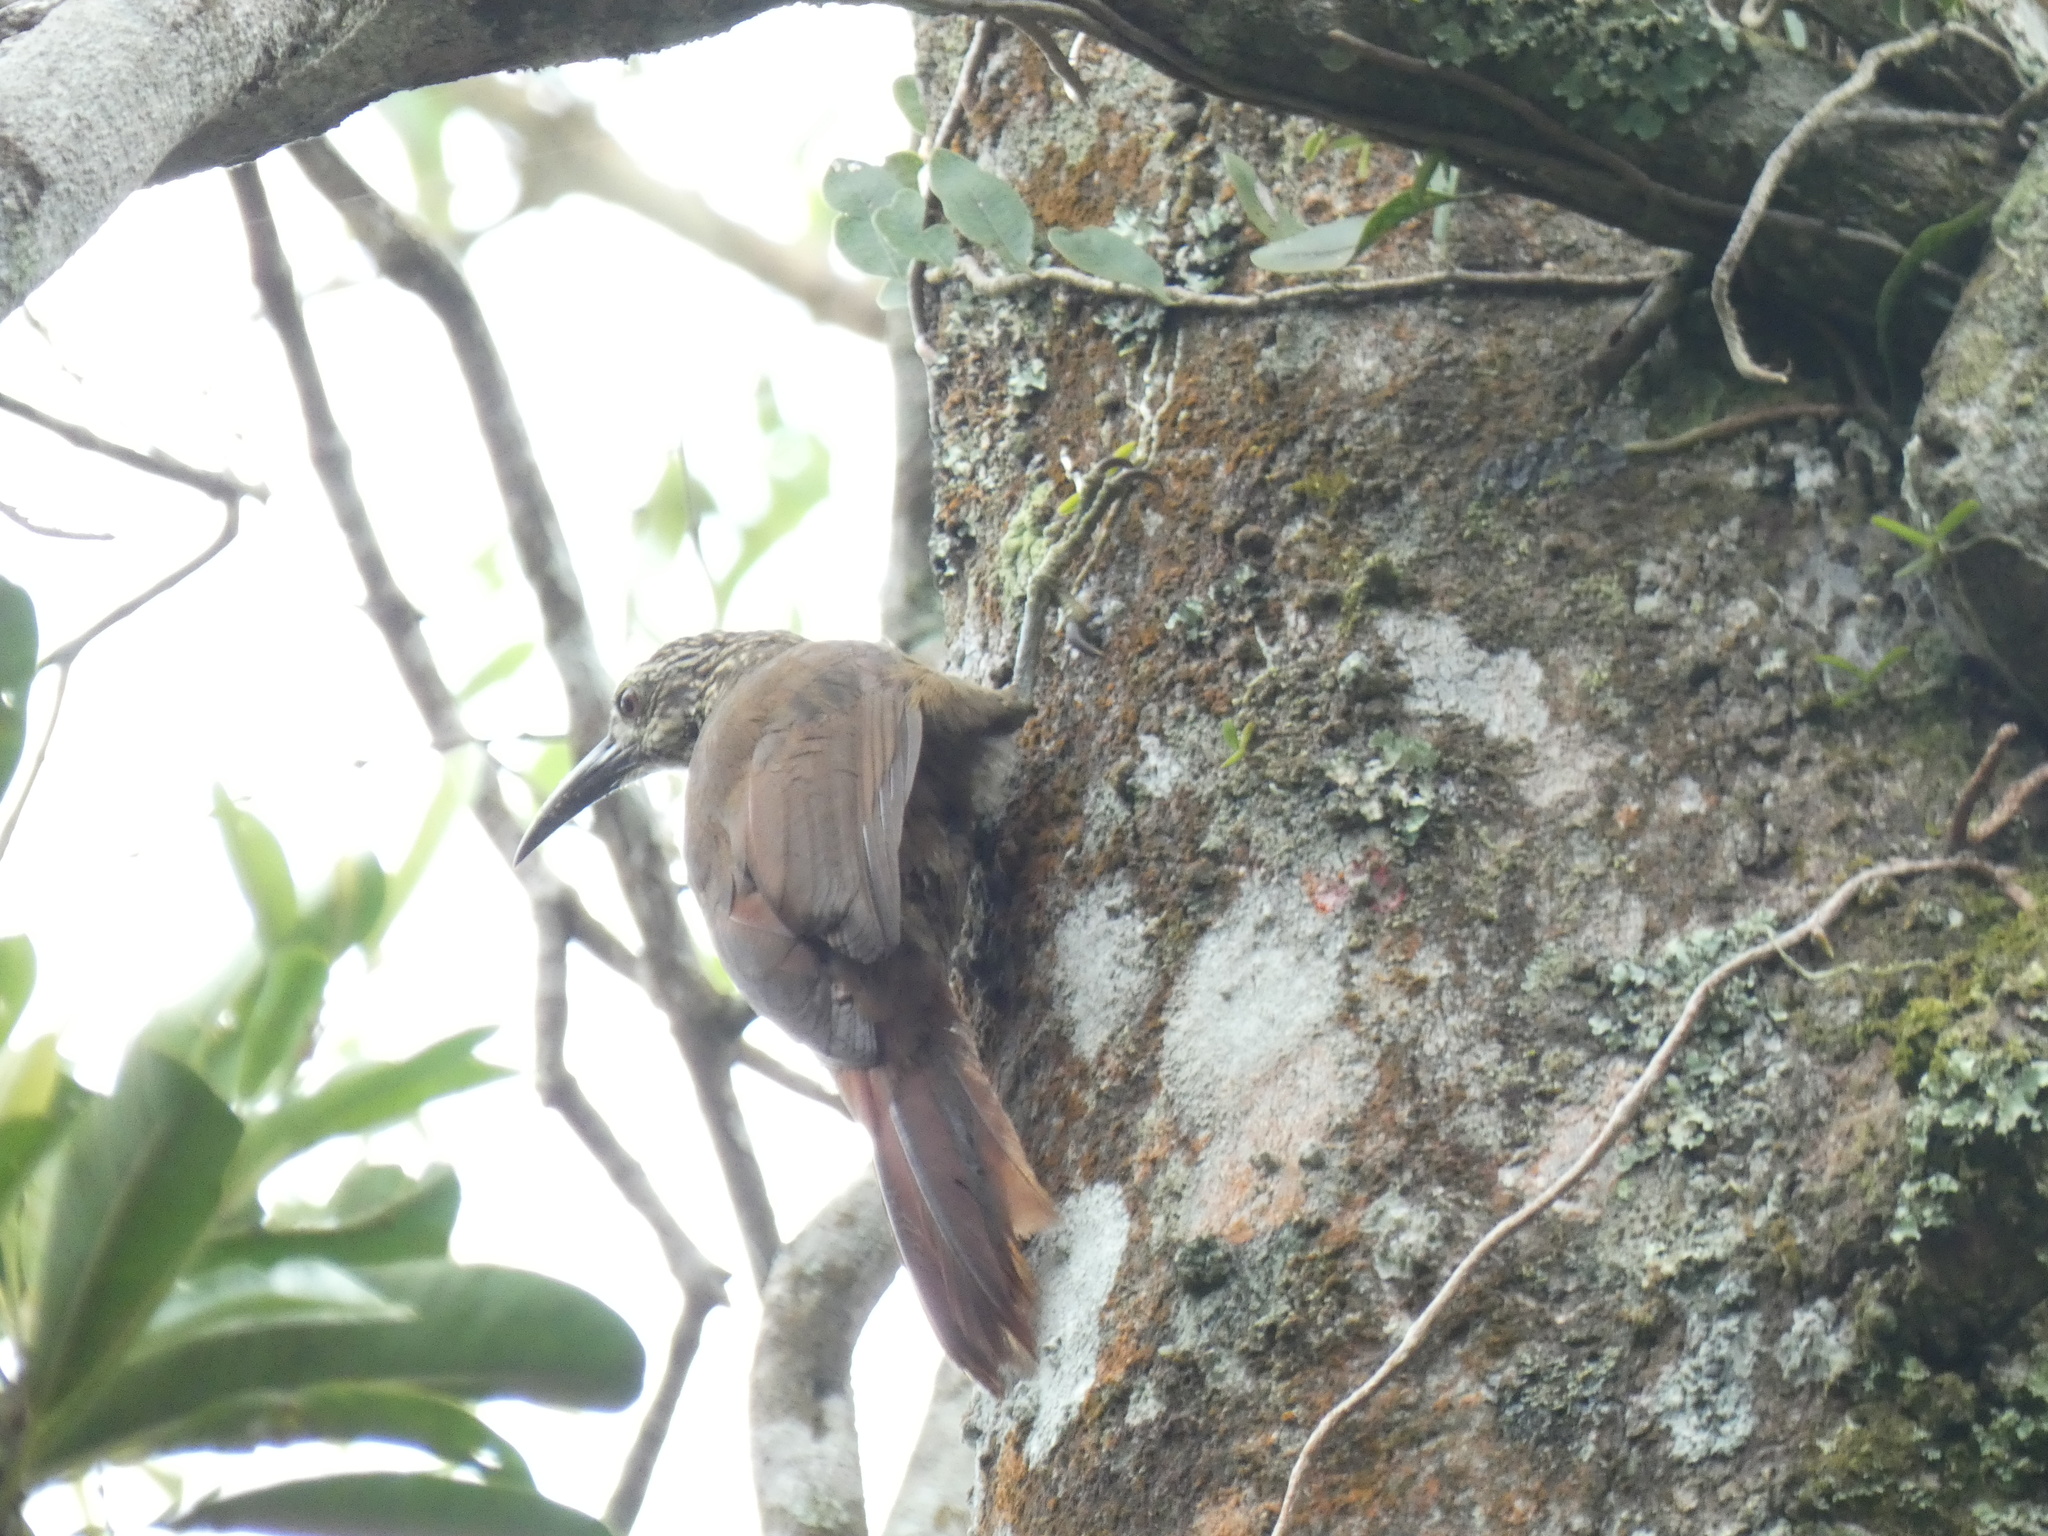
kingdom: Animalia
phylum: Chordata
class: Aves
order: Passeriformes
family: Furnariidae
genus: Xiphocolaptes
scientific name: Xiphocolaptes albicollis
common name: White-throated woodcreeper
